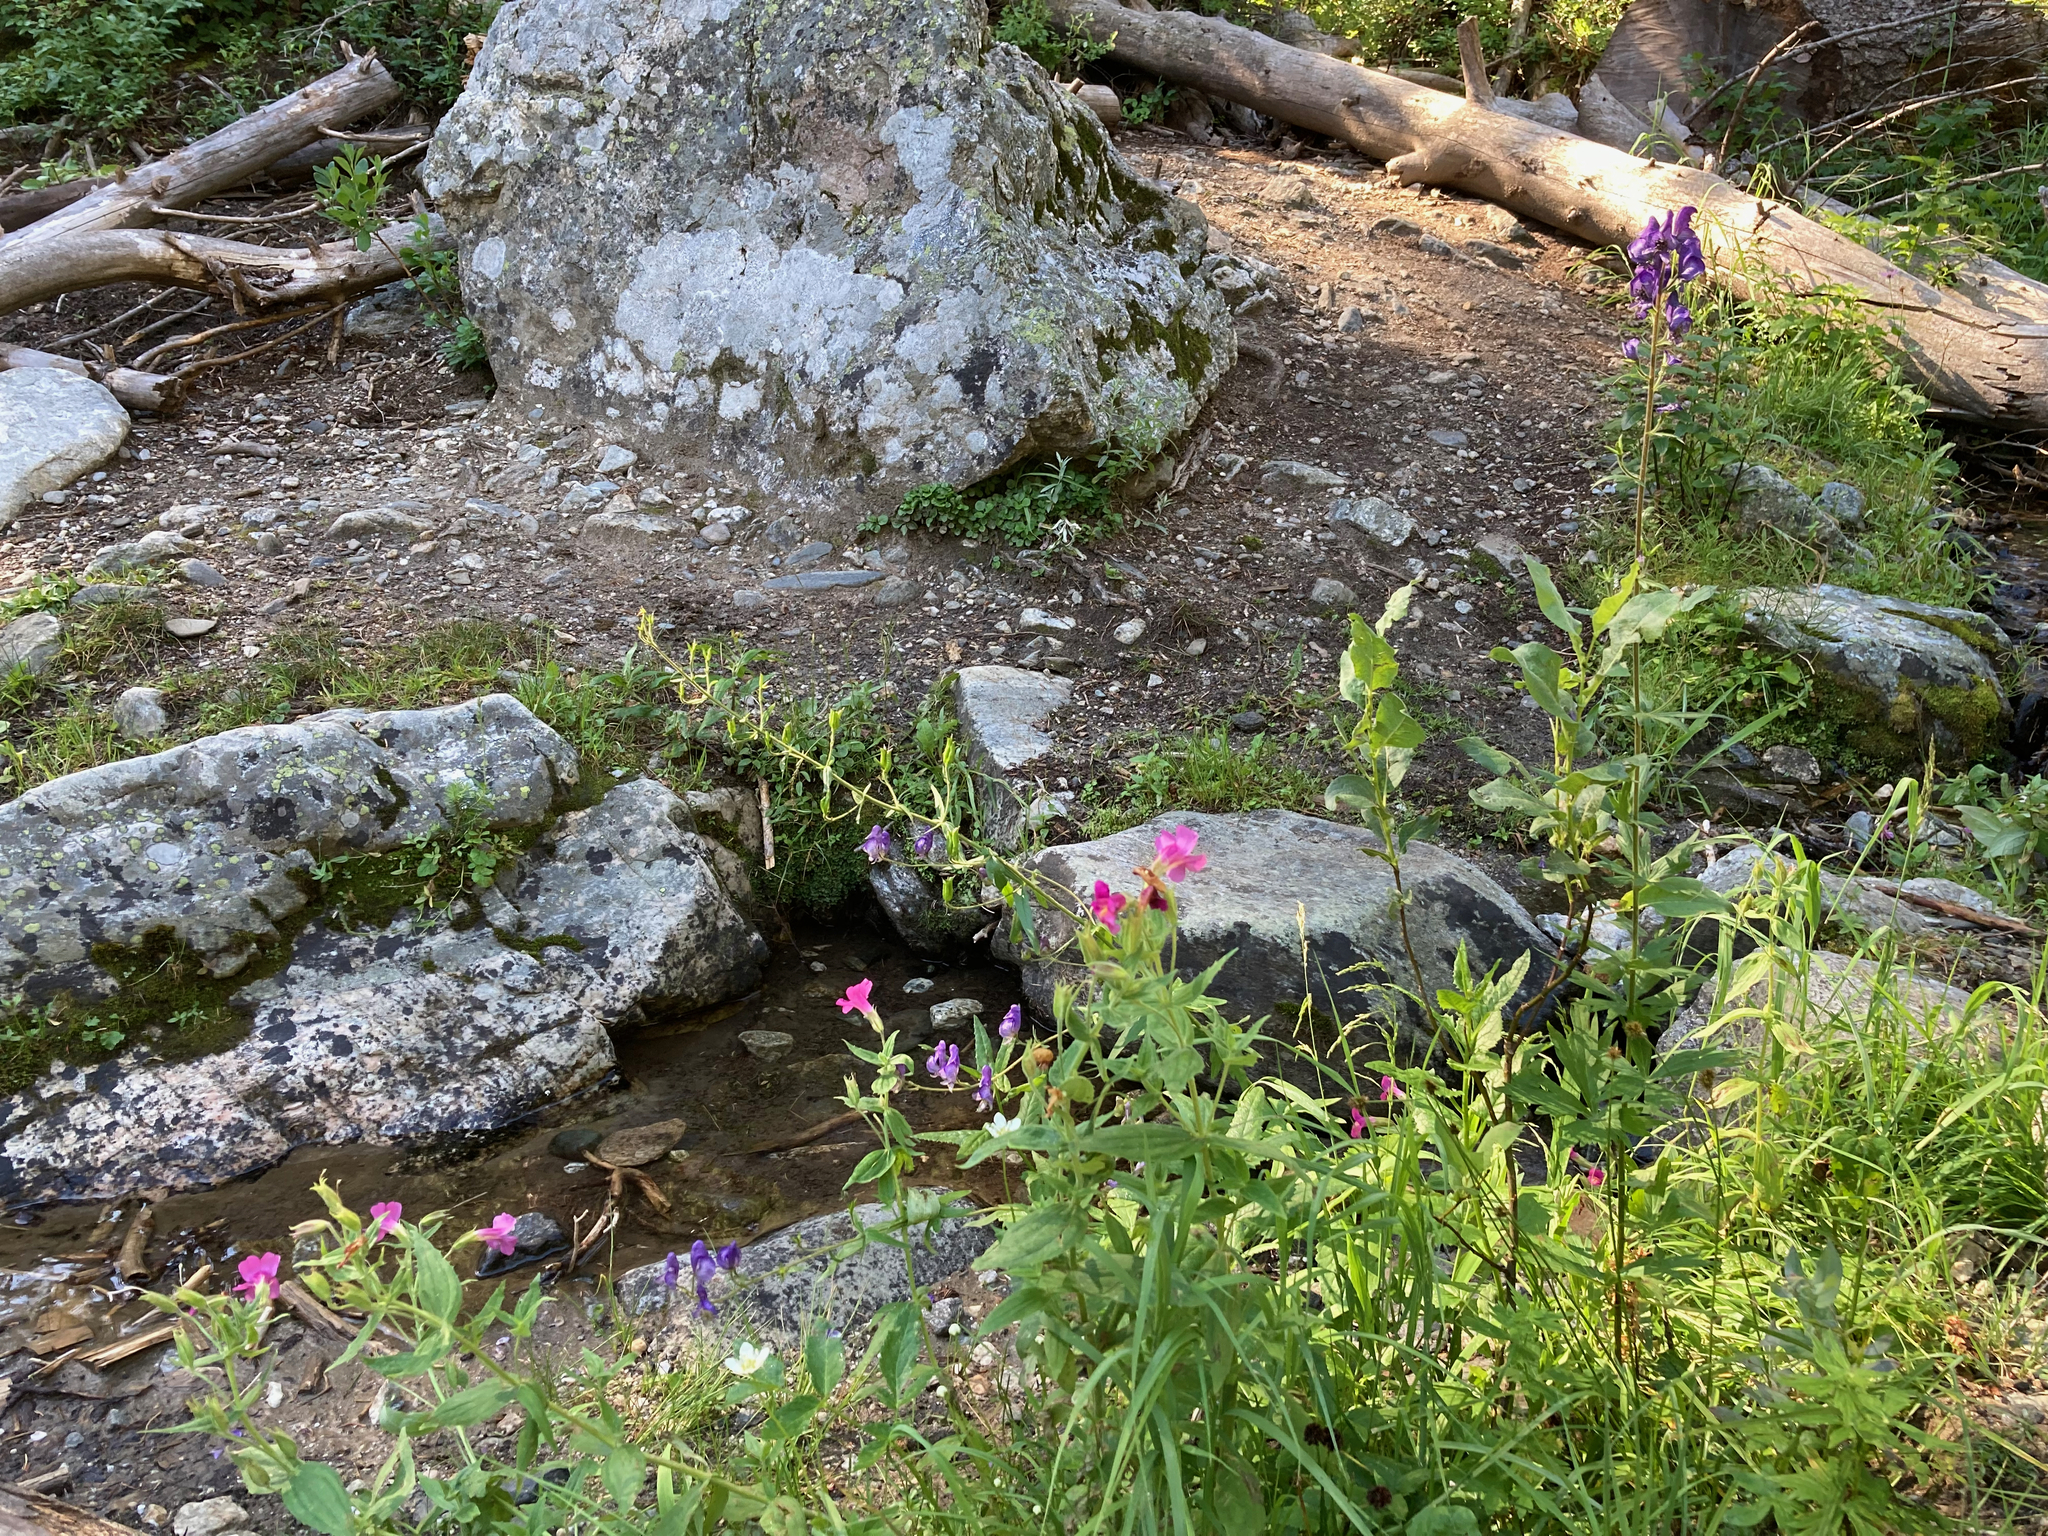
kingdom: Plantae
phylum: Tracheophyta
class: Magnoliopsida
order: Ranunculales
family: Ranunculaceae
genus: Aconitum
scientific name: Aconitum columbianum
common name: Columbia aconite
